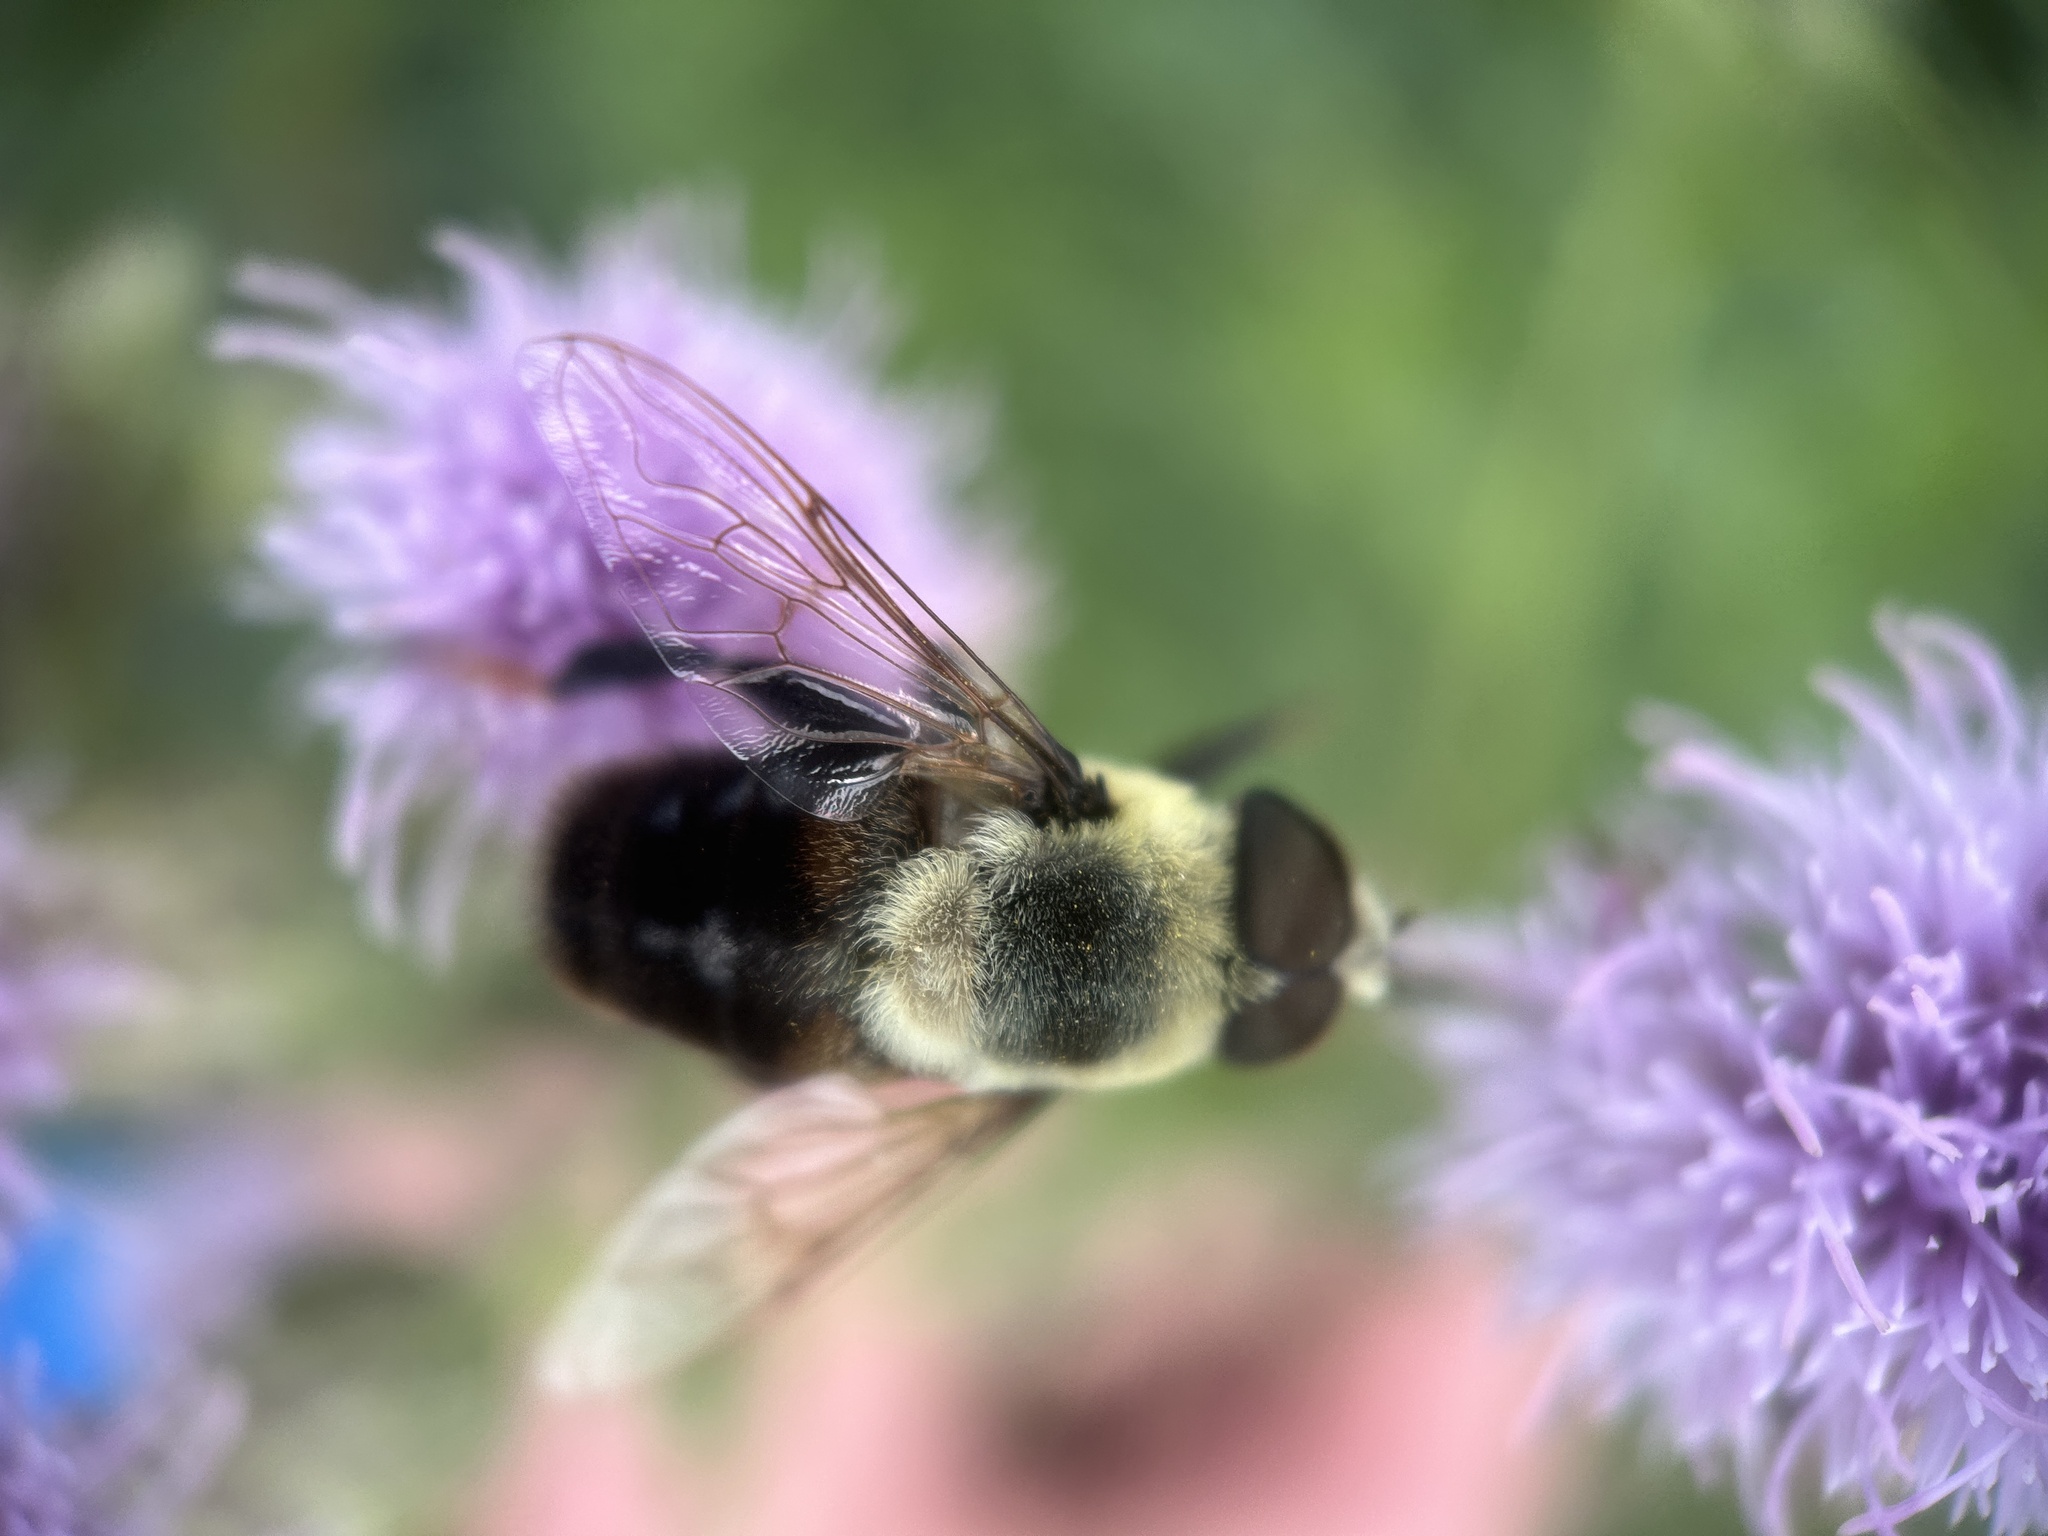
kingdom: Animalia
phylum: Arthropoda
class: Insecta
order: Diptera
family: Syrphidae
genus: Eristalis
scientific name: Eristalis flavipes
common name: Orange-legged drone fly
